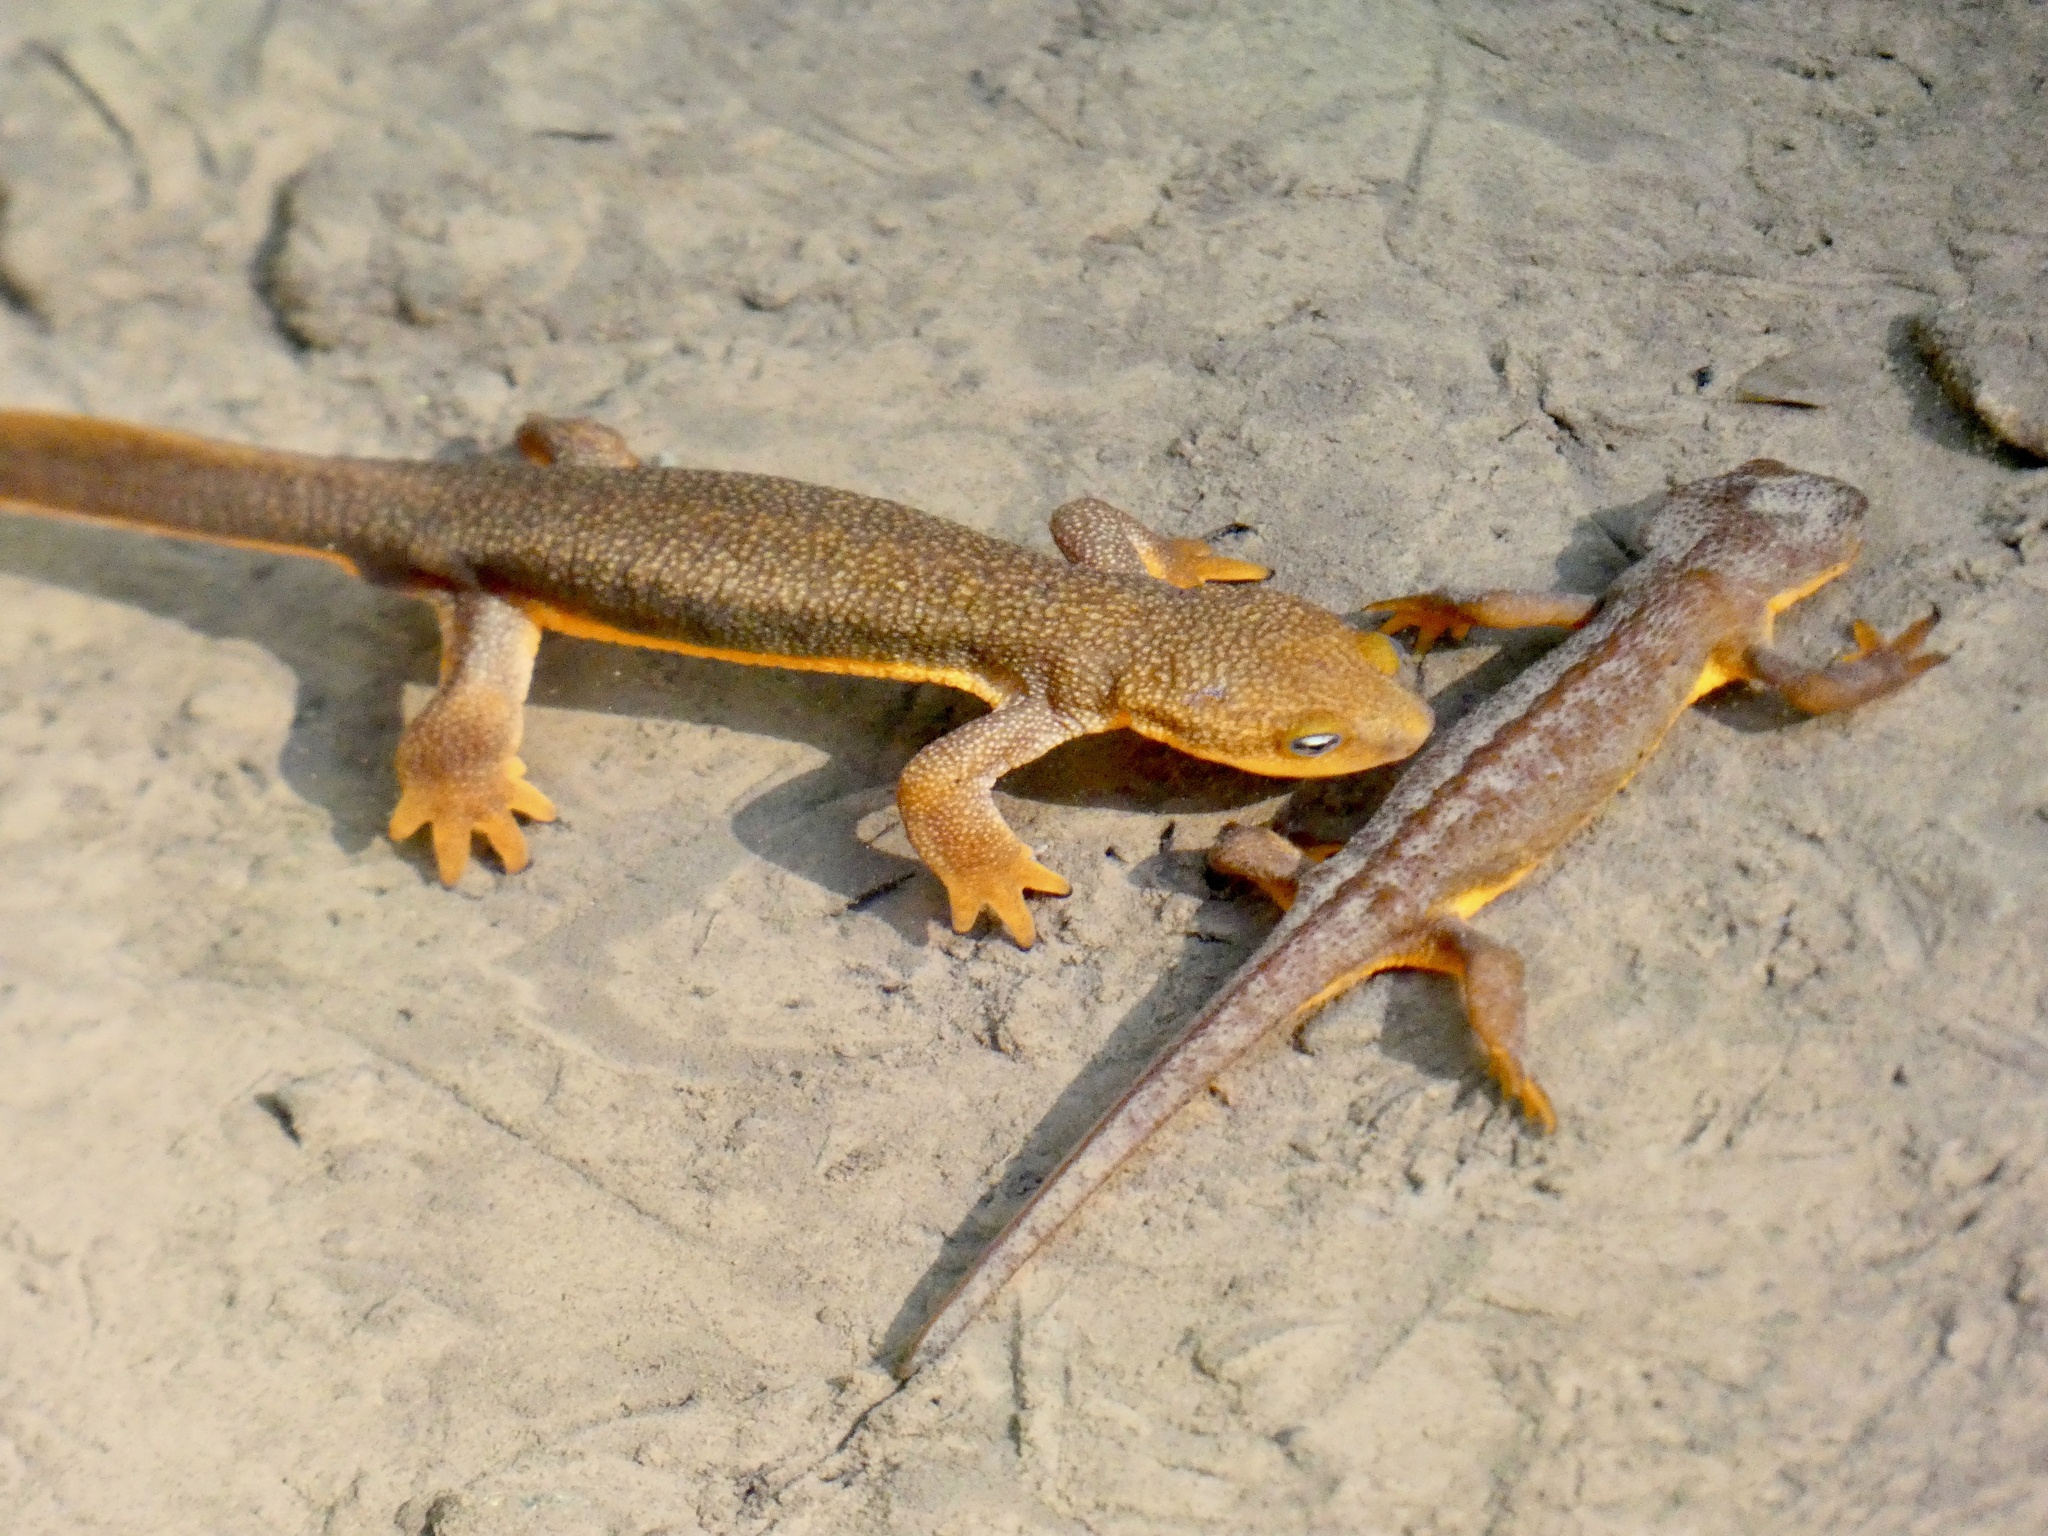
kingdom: Animalia
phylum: Chordata
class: Amphibia
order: Caudata
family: Salamandridae
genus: Taricha
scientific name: Taricha torosa
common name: California newt
